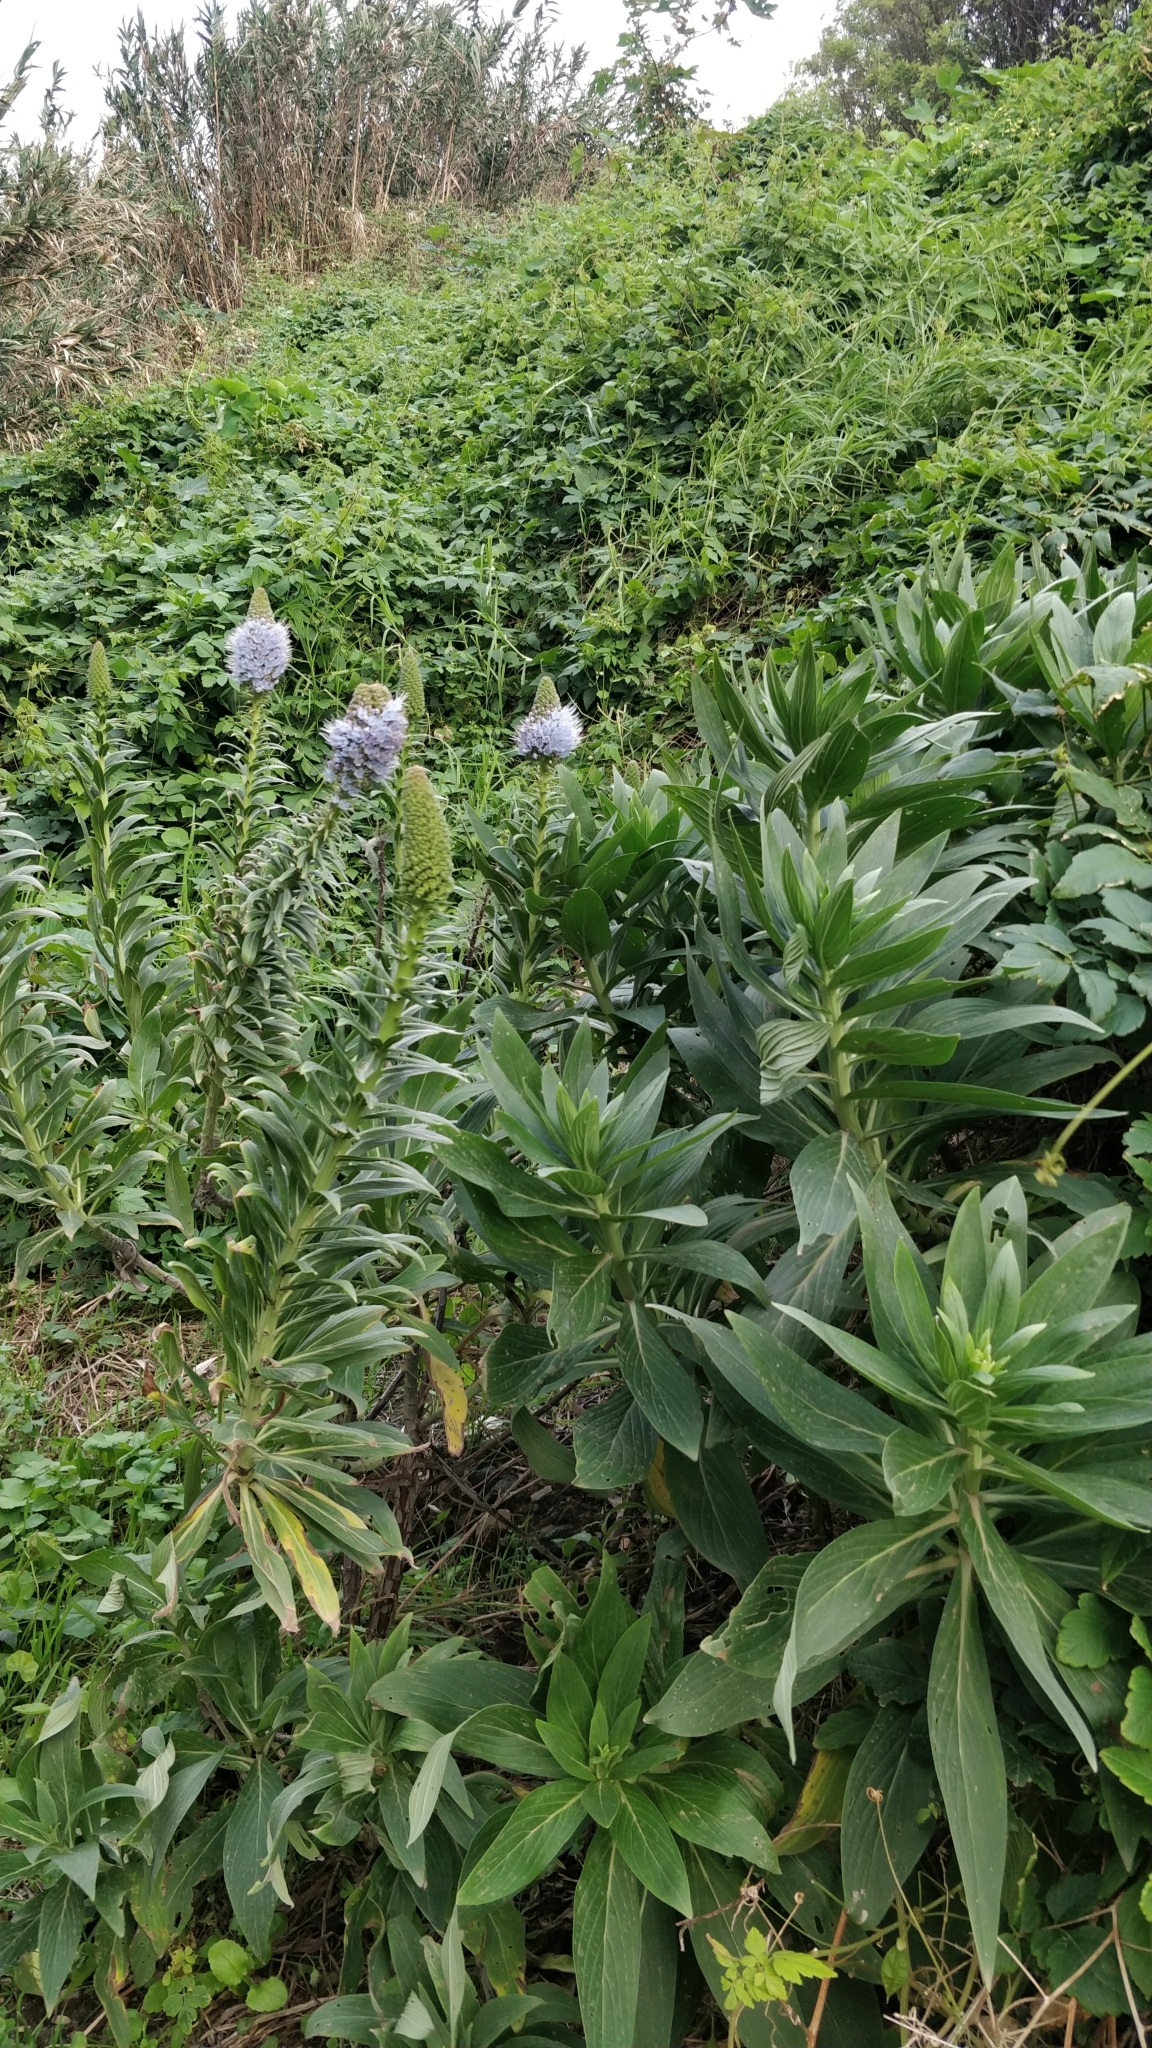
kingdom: Plantae
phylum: Tracheophyta
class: Magnoliopsida
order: Boraginales
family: Boraginaceae
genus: Echium
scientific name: Echium nervosum
